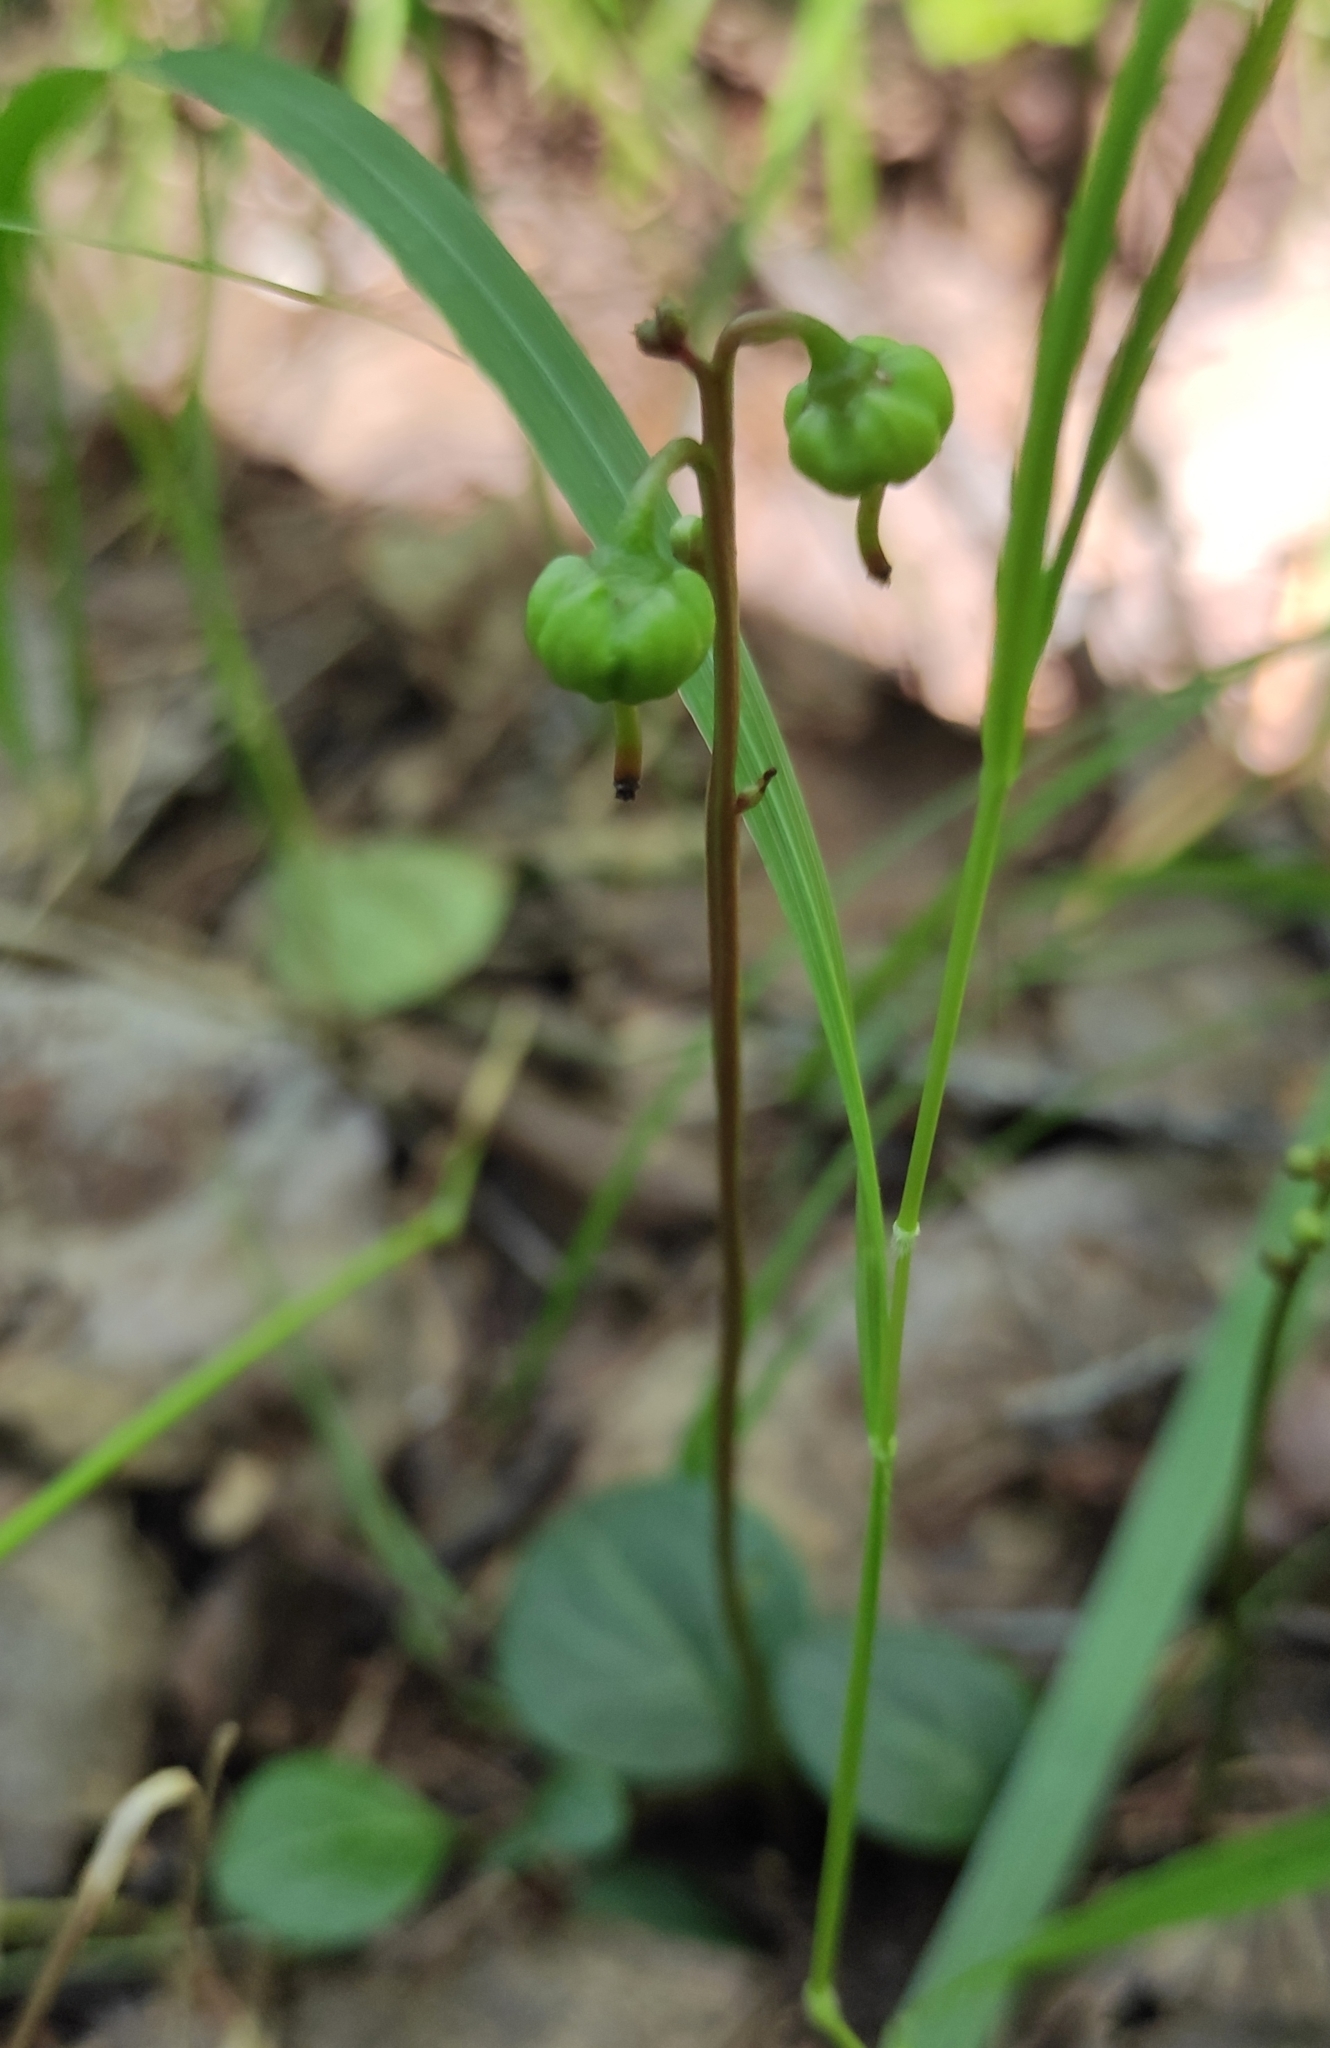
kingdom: Plantae
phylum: Tracheophyta
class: Magnoliopsida
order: Ericales
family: Ericaceae
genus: Pyrola
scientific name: Pyrola chlorantha
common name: Green wintergreen
